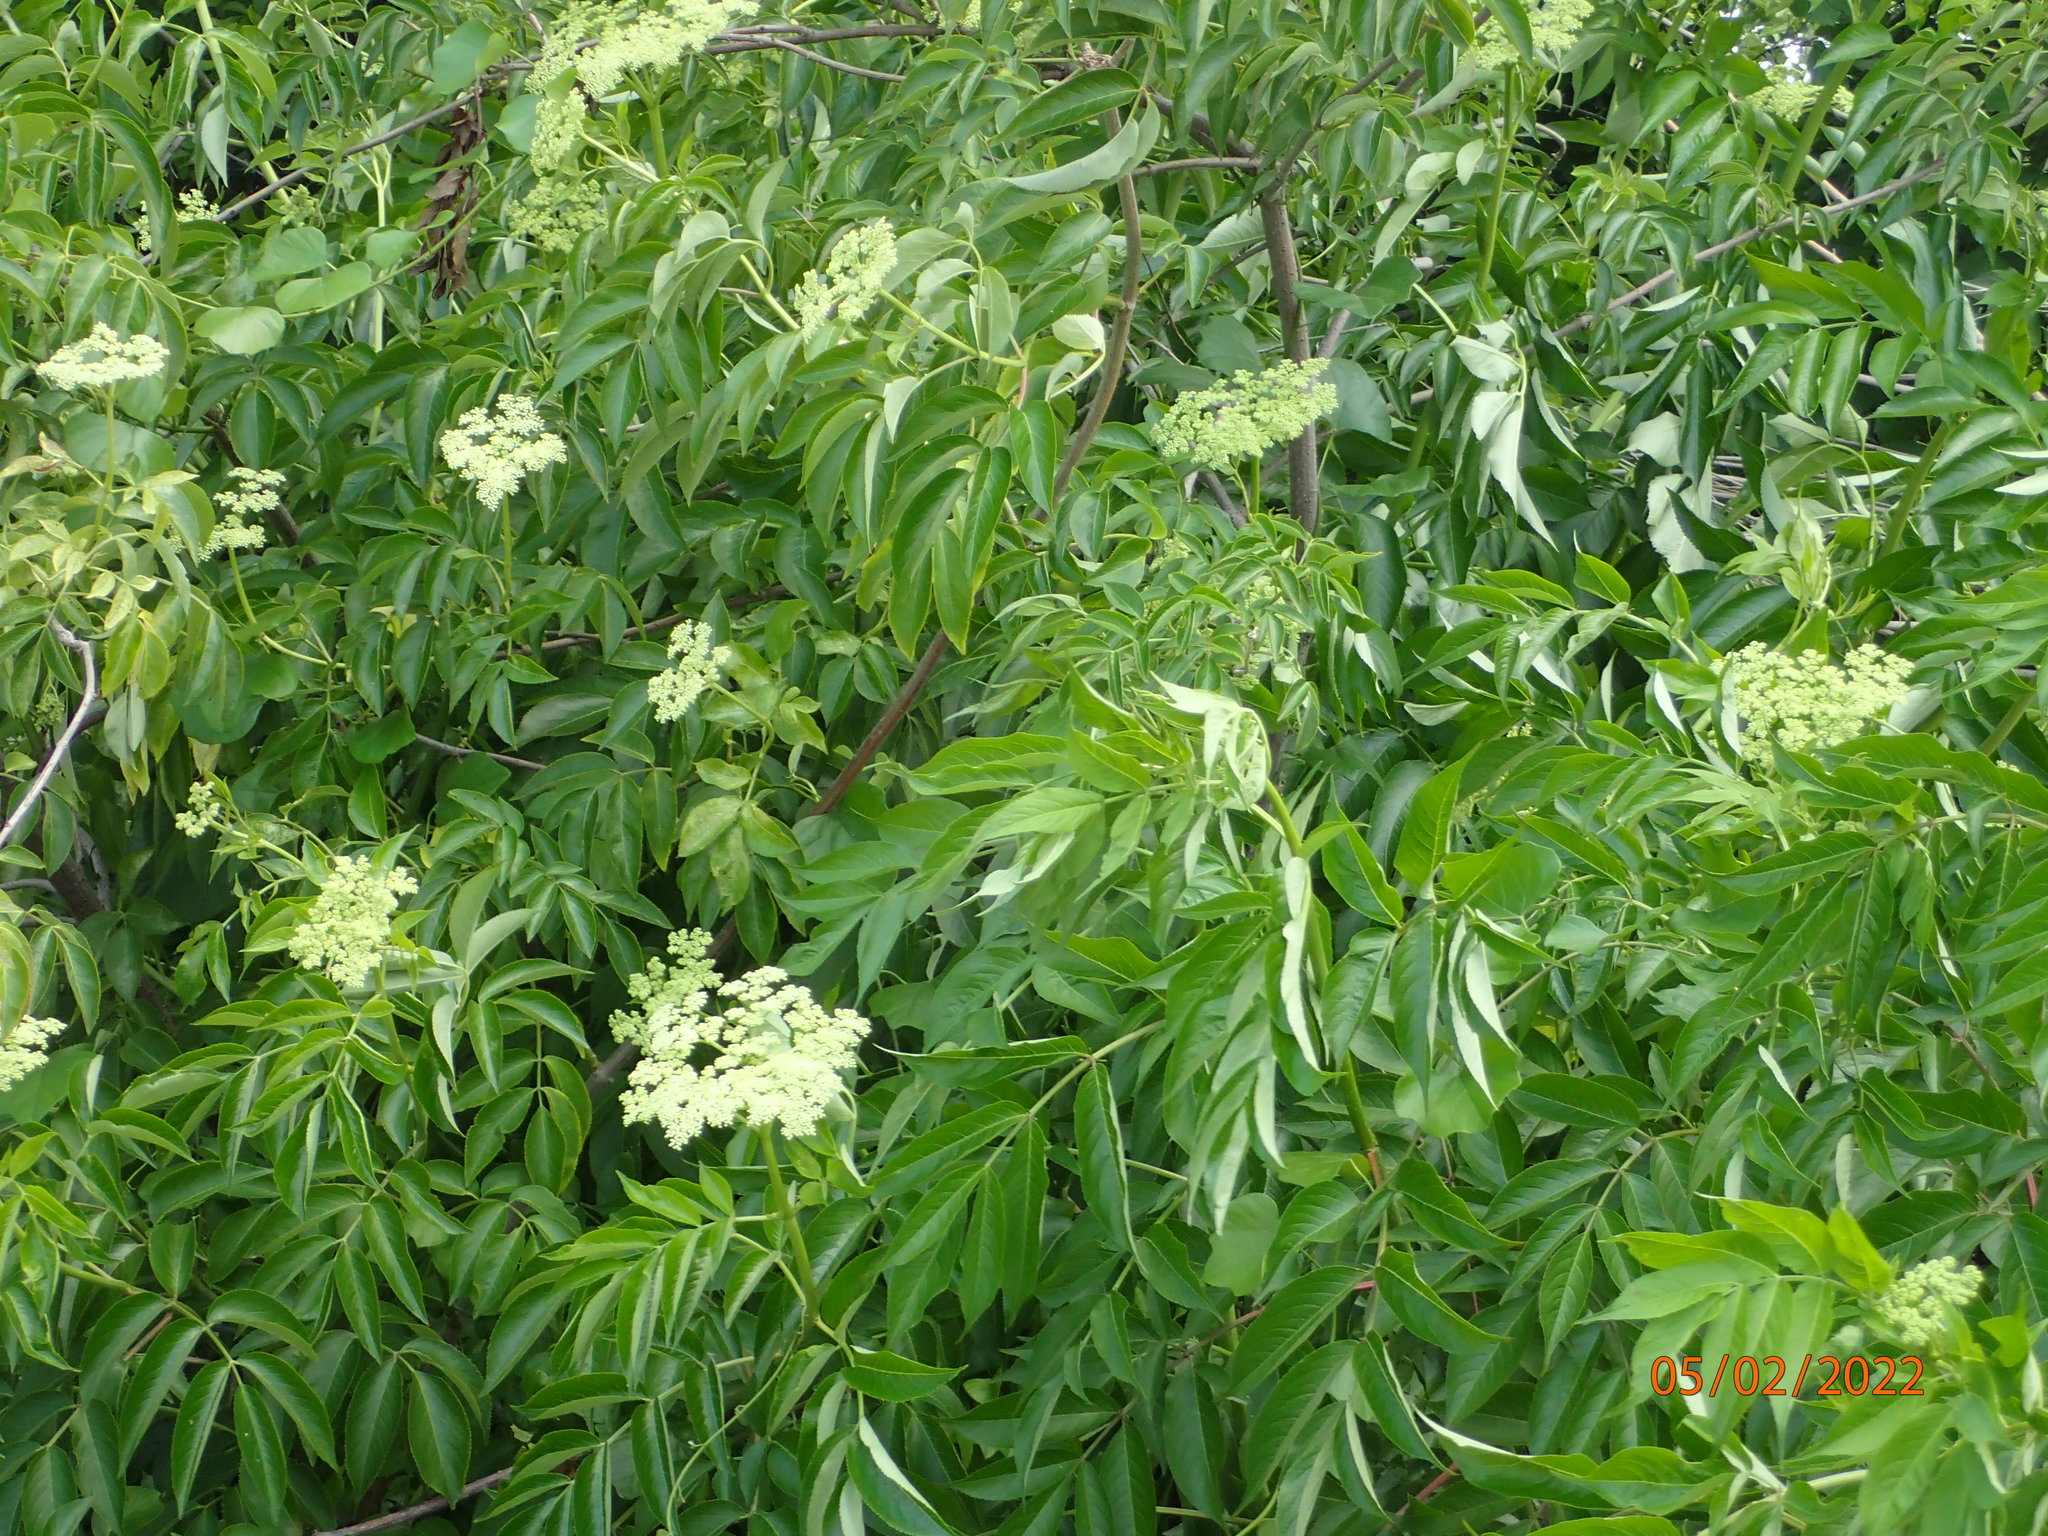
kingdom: Plantae
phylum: Tracheophyta
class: Magnoliopsida
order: Dipsacales
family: Viburnaceae
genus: Sambucus
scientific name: Sambucus canadensis
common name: American elder
